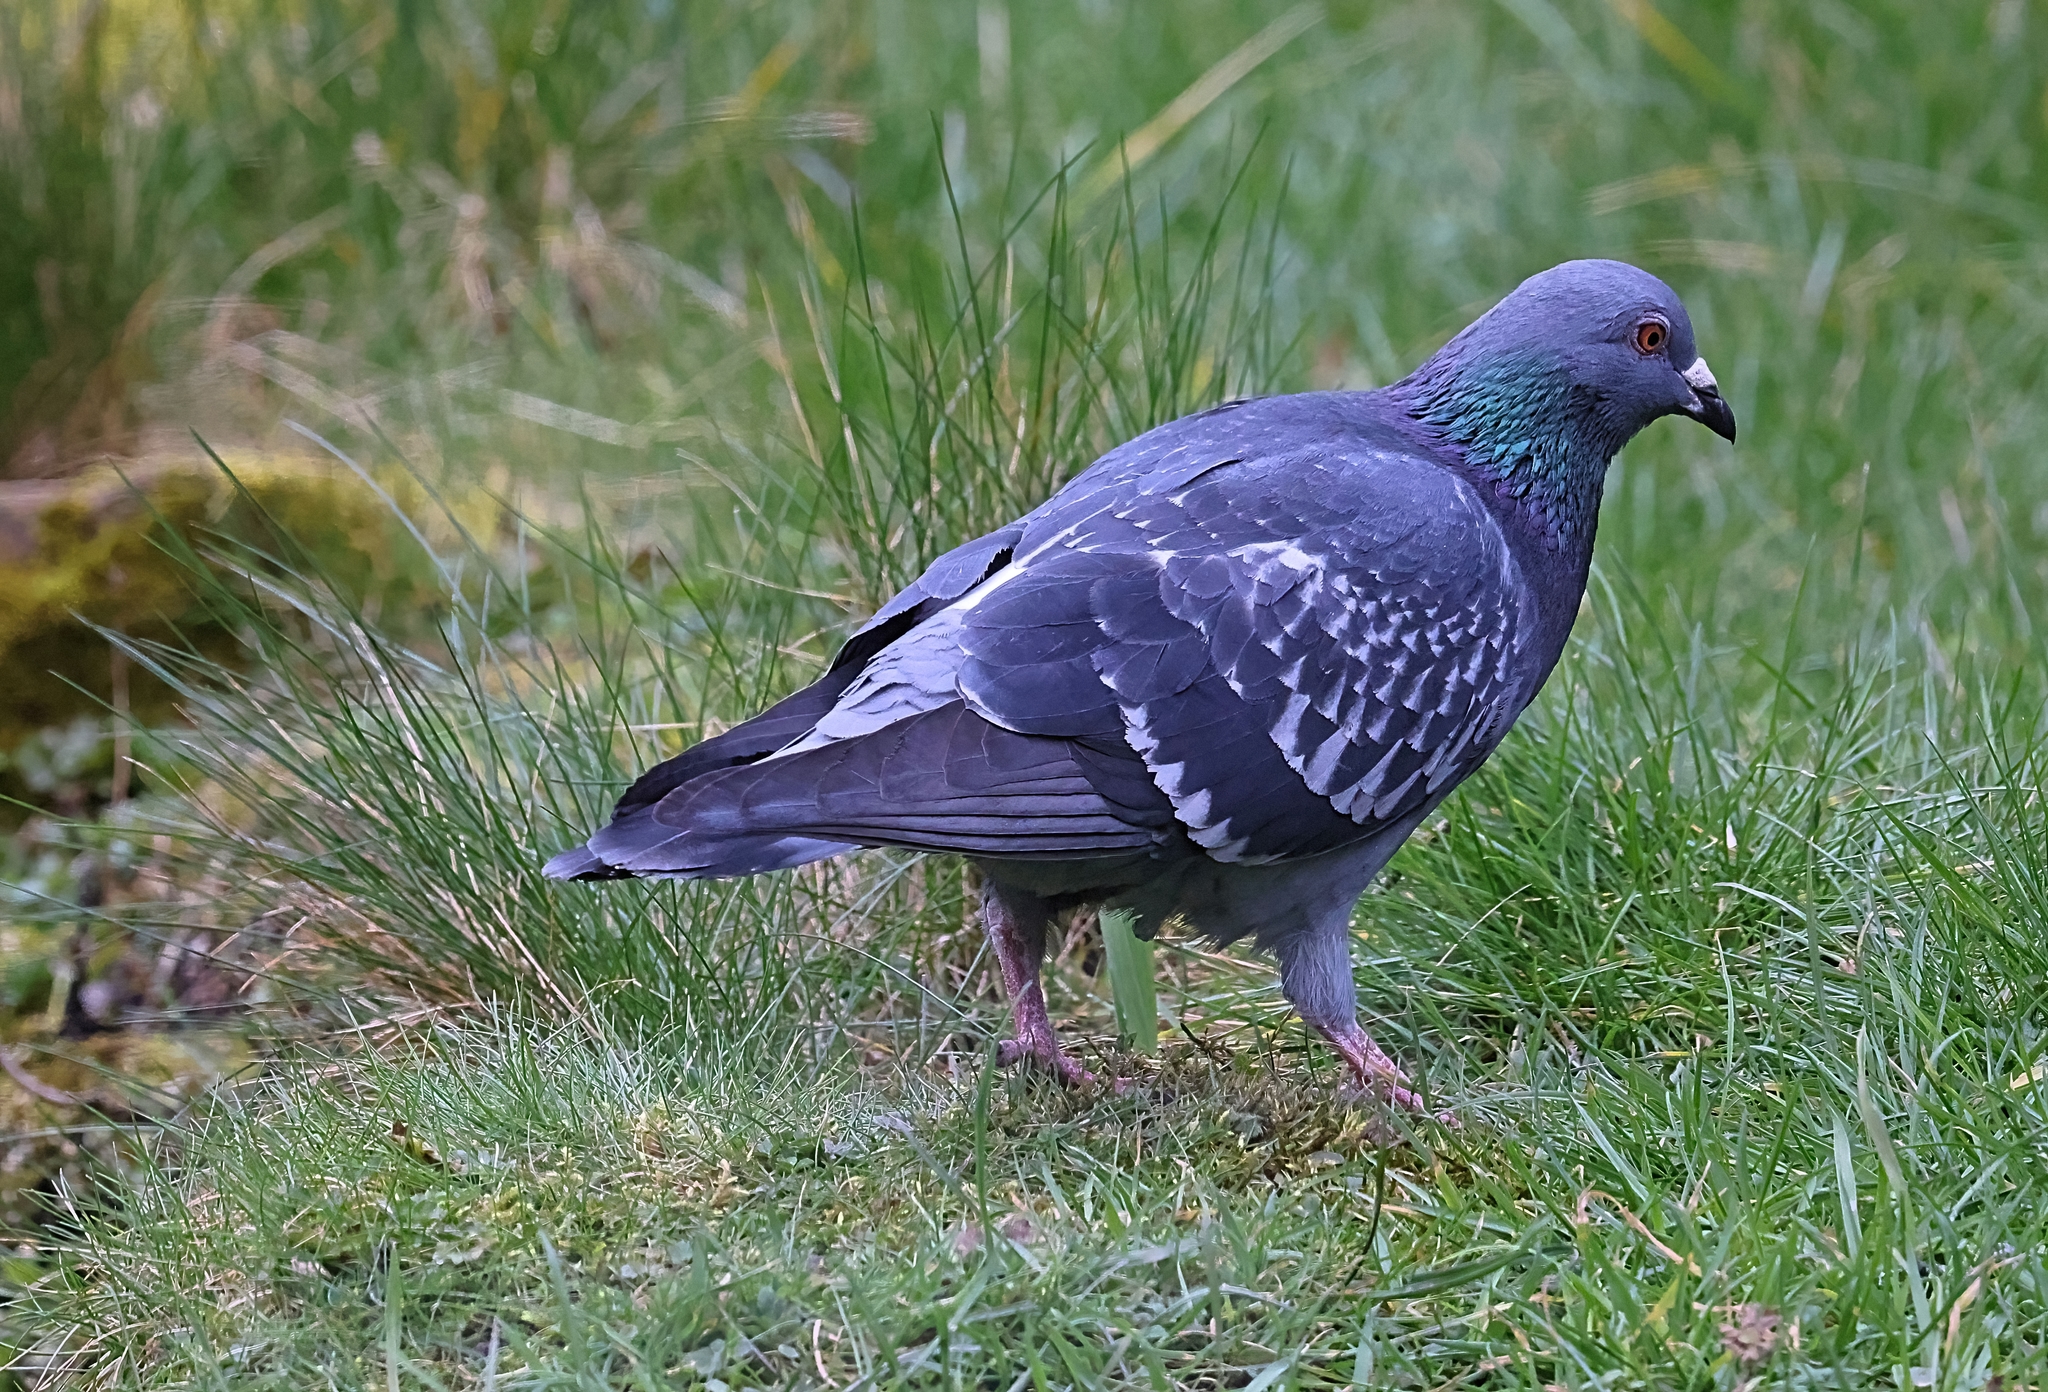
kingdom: Animalia
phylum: Chordata
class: Aves
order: Columbiformes
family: Columbidae
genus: Columba
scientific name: Columba livia
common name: Rock pigeon
